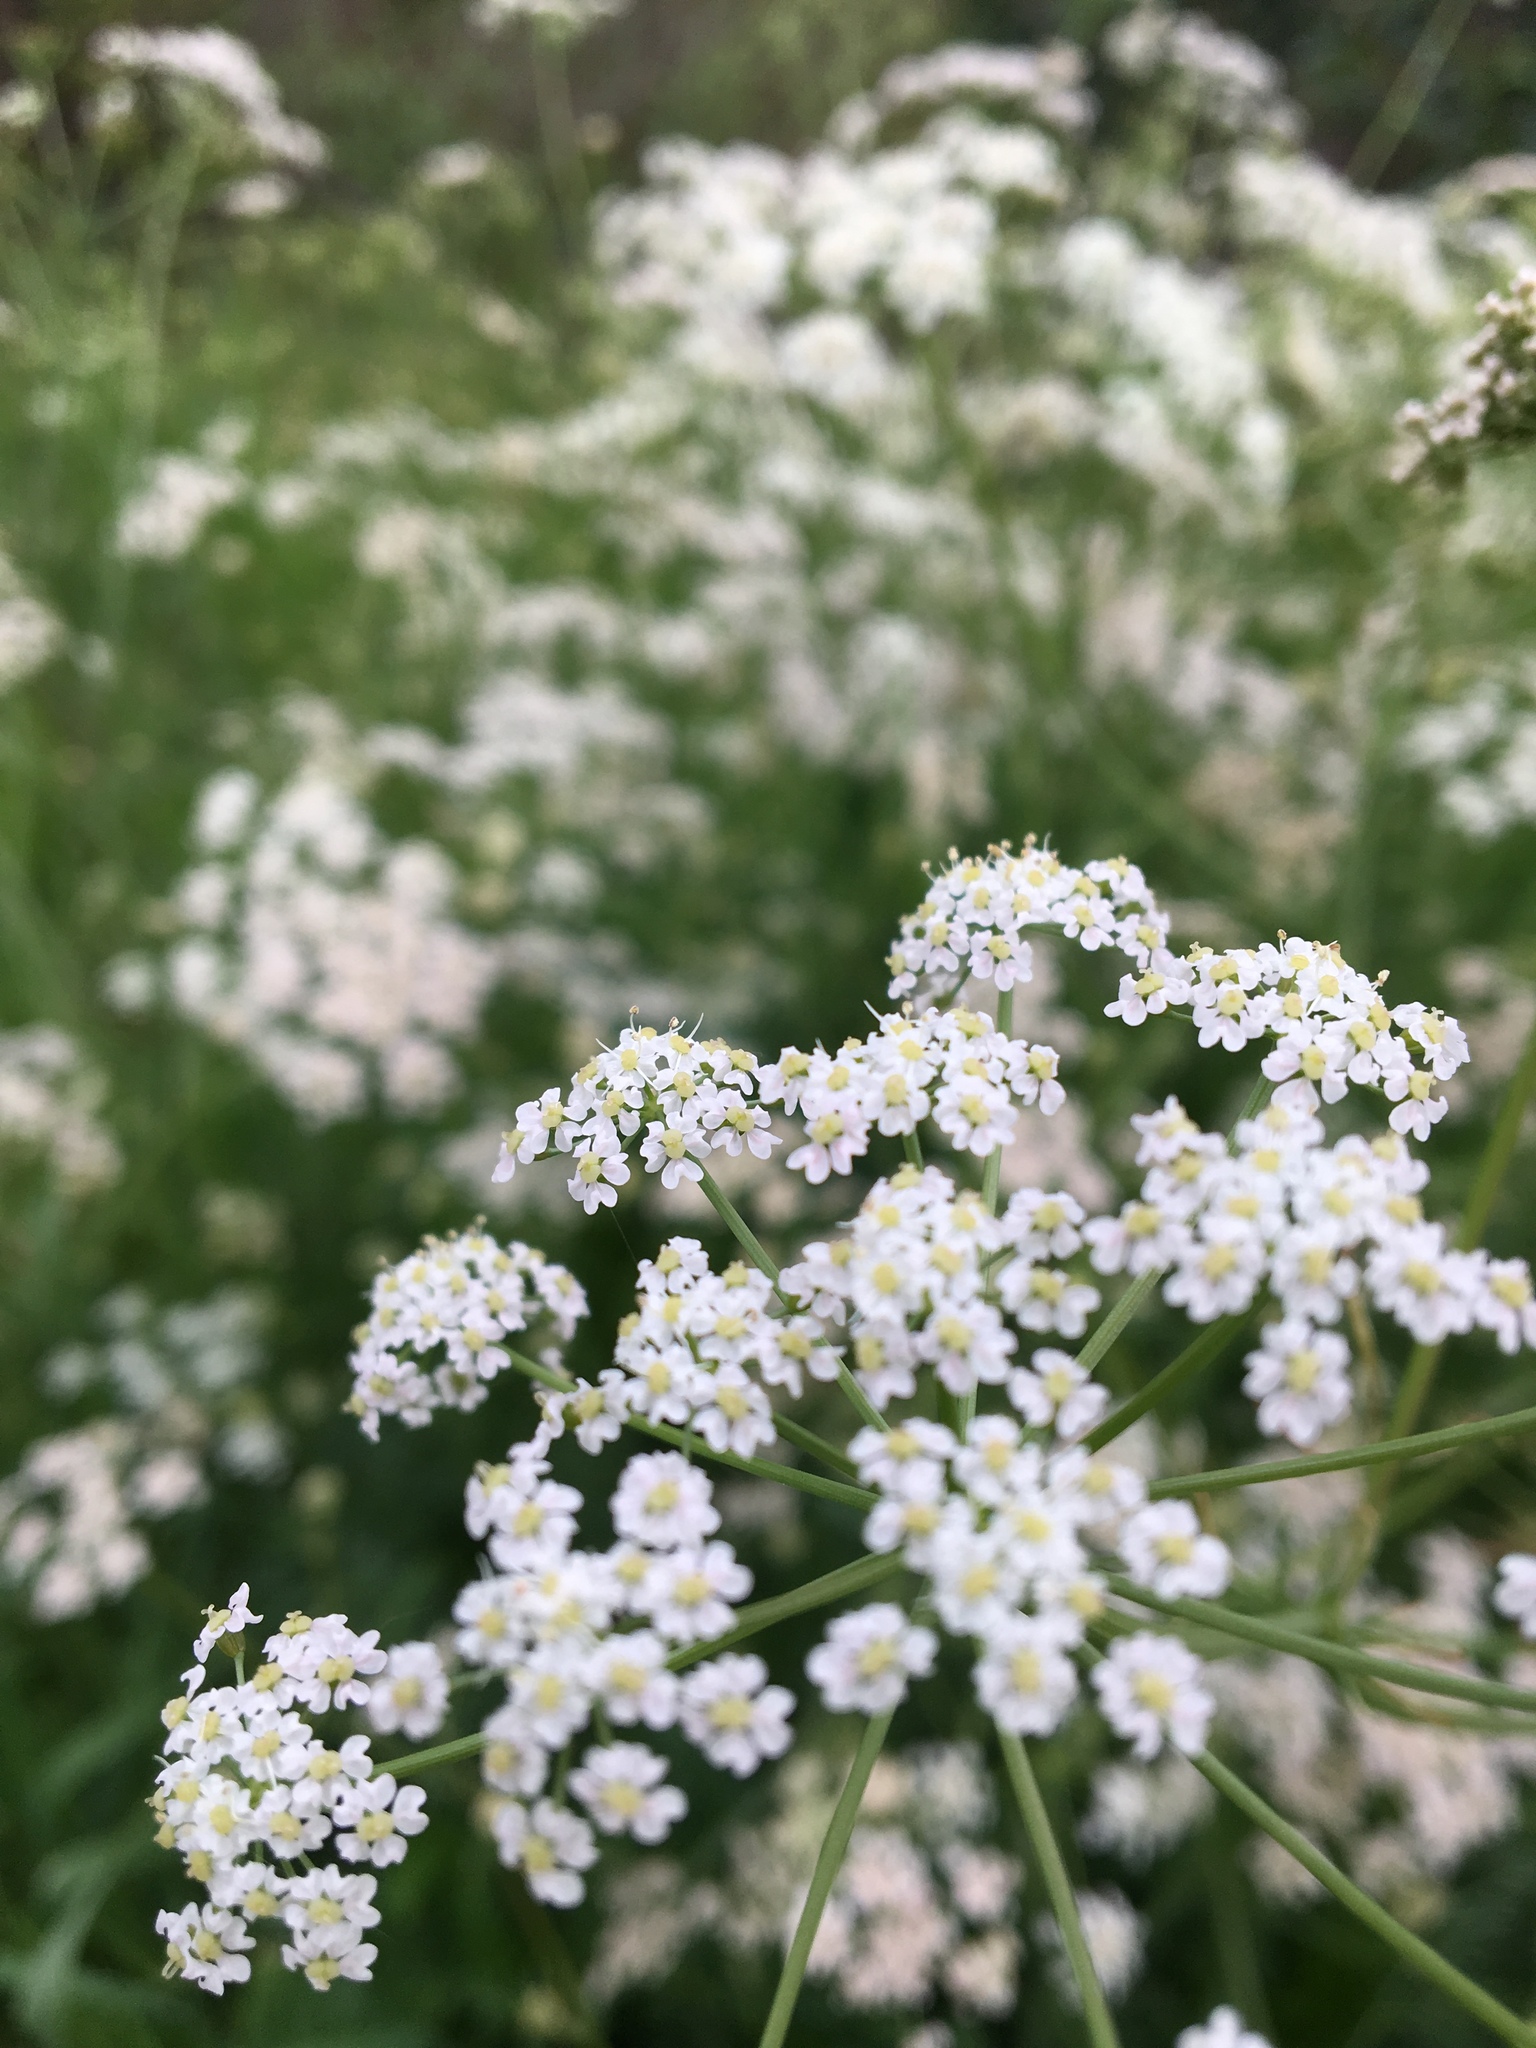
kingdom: Plantae
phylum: Tracheophyta
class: Magnoliopsida
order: Apiales
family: Apiaceae
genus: Carum
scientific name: Carum carvi
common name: Caraway
